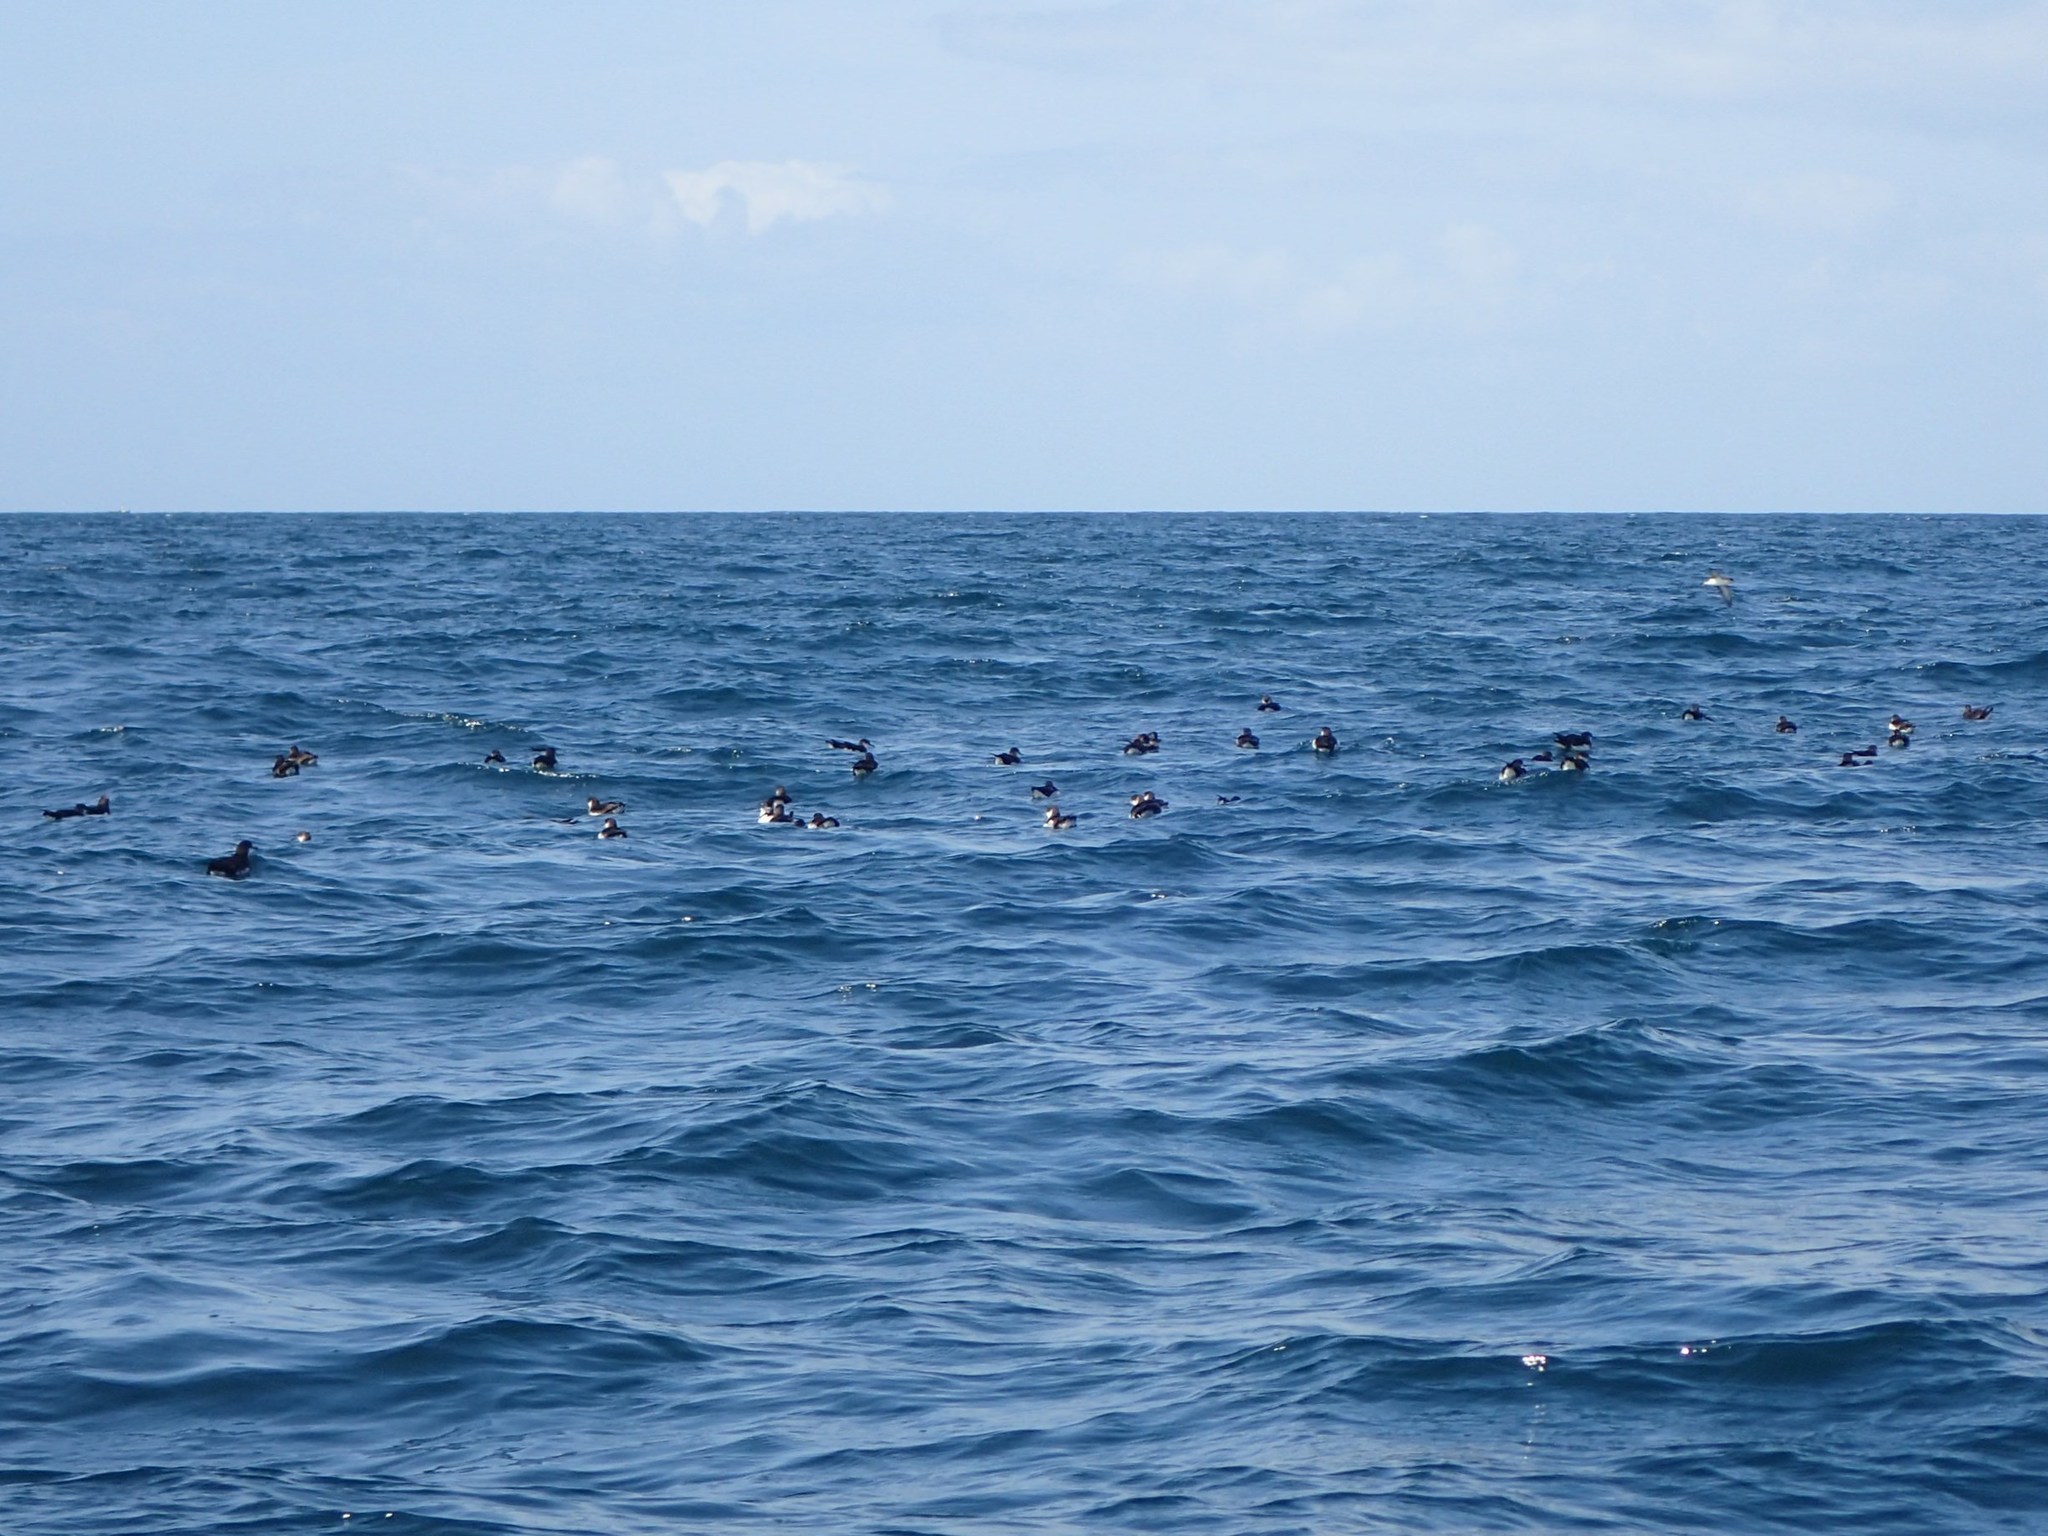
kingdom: Animalia
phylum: Chordata
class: Aves
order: Procellariiformes
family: Procellariidae
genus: Puffinus
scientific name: Puffinus puffinus
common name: Manx shearwater
